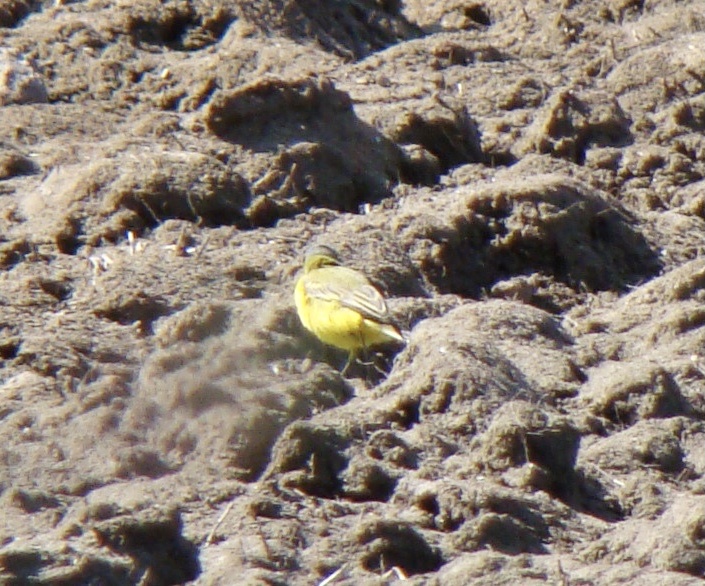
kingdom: Animalia
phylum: Chordata
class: Aves
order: Passeriformes
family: Motacillidae
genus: Motacilla
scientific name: Motacilla flava
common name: Western yellow wagtail
